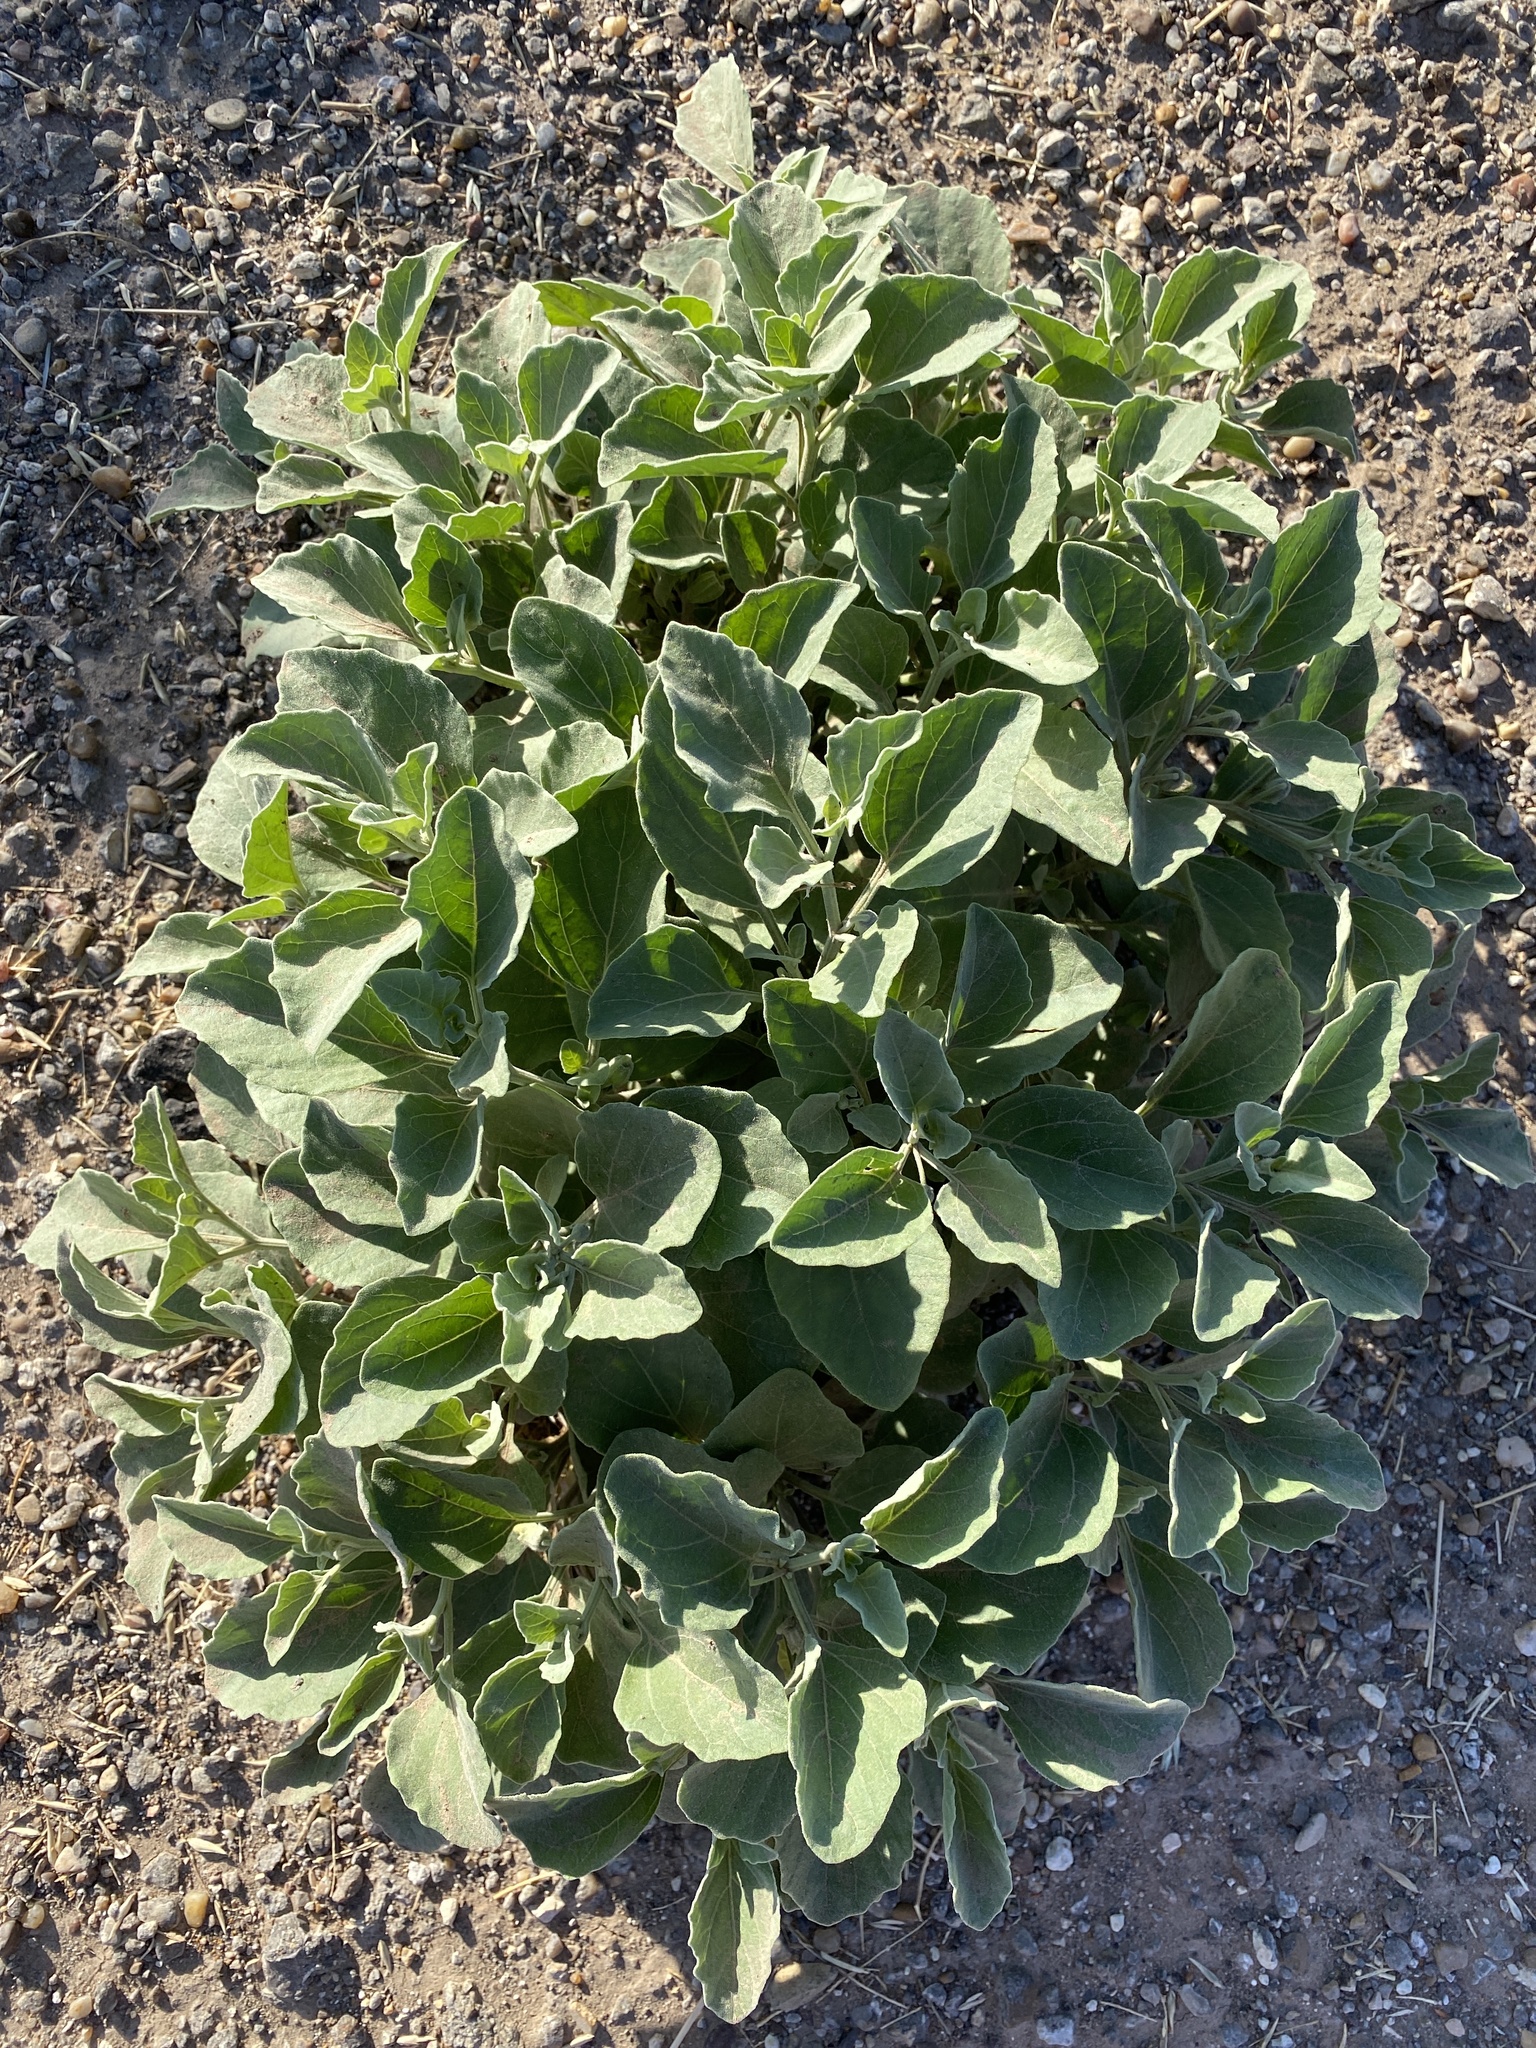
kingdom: Plantae
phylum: Tracheophyta
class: Magnoliopsida
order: Solanales
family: Solanaceae
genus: Physalis
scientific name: Physalis cinerascens
